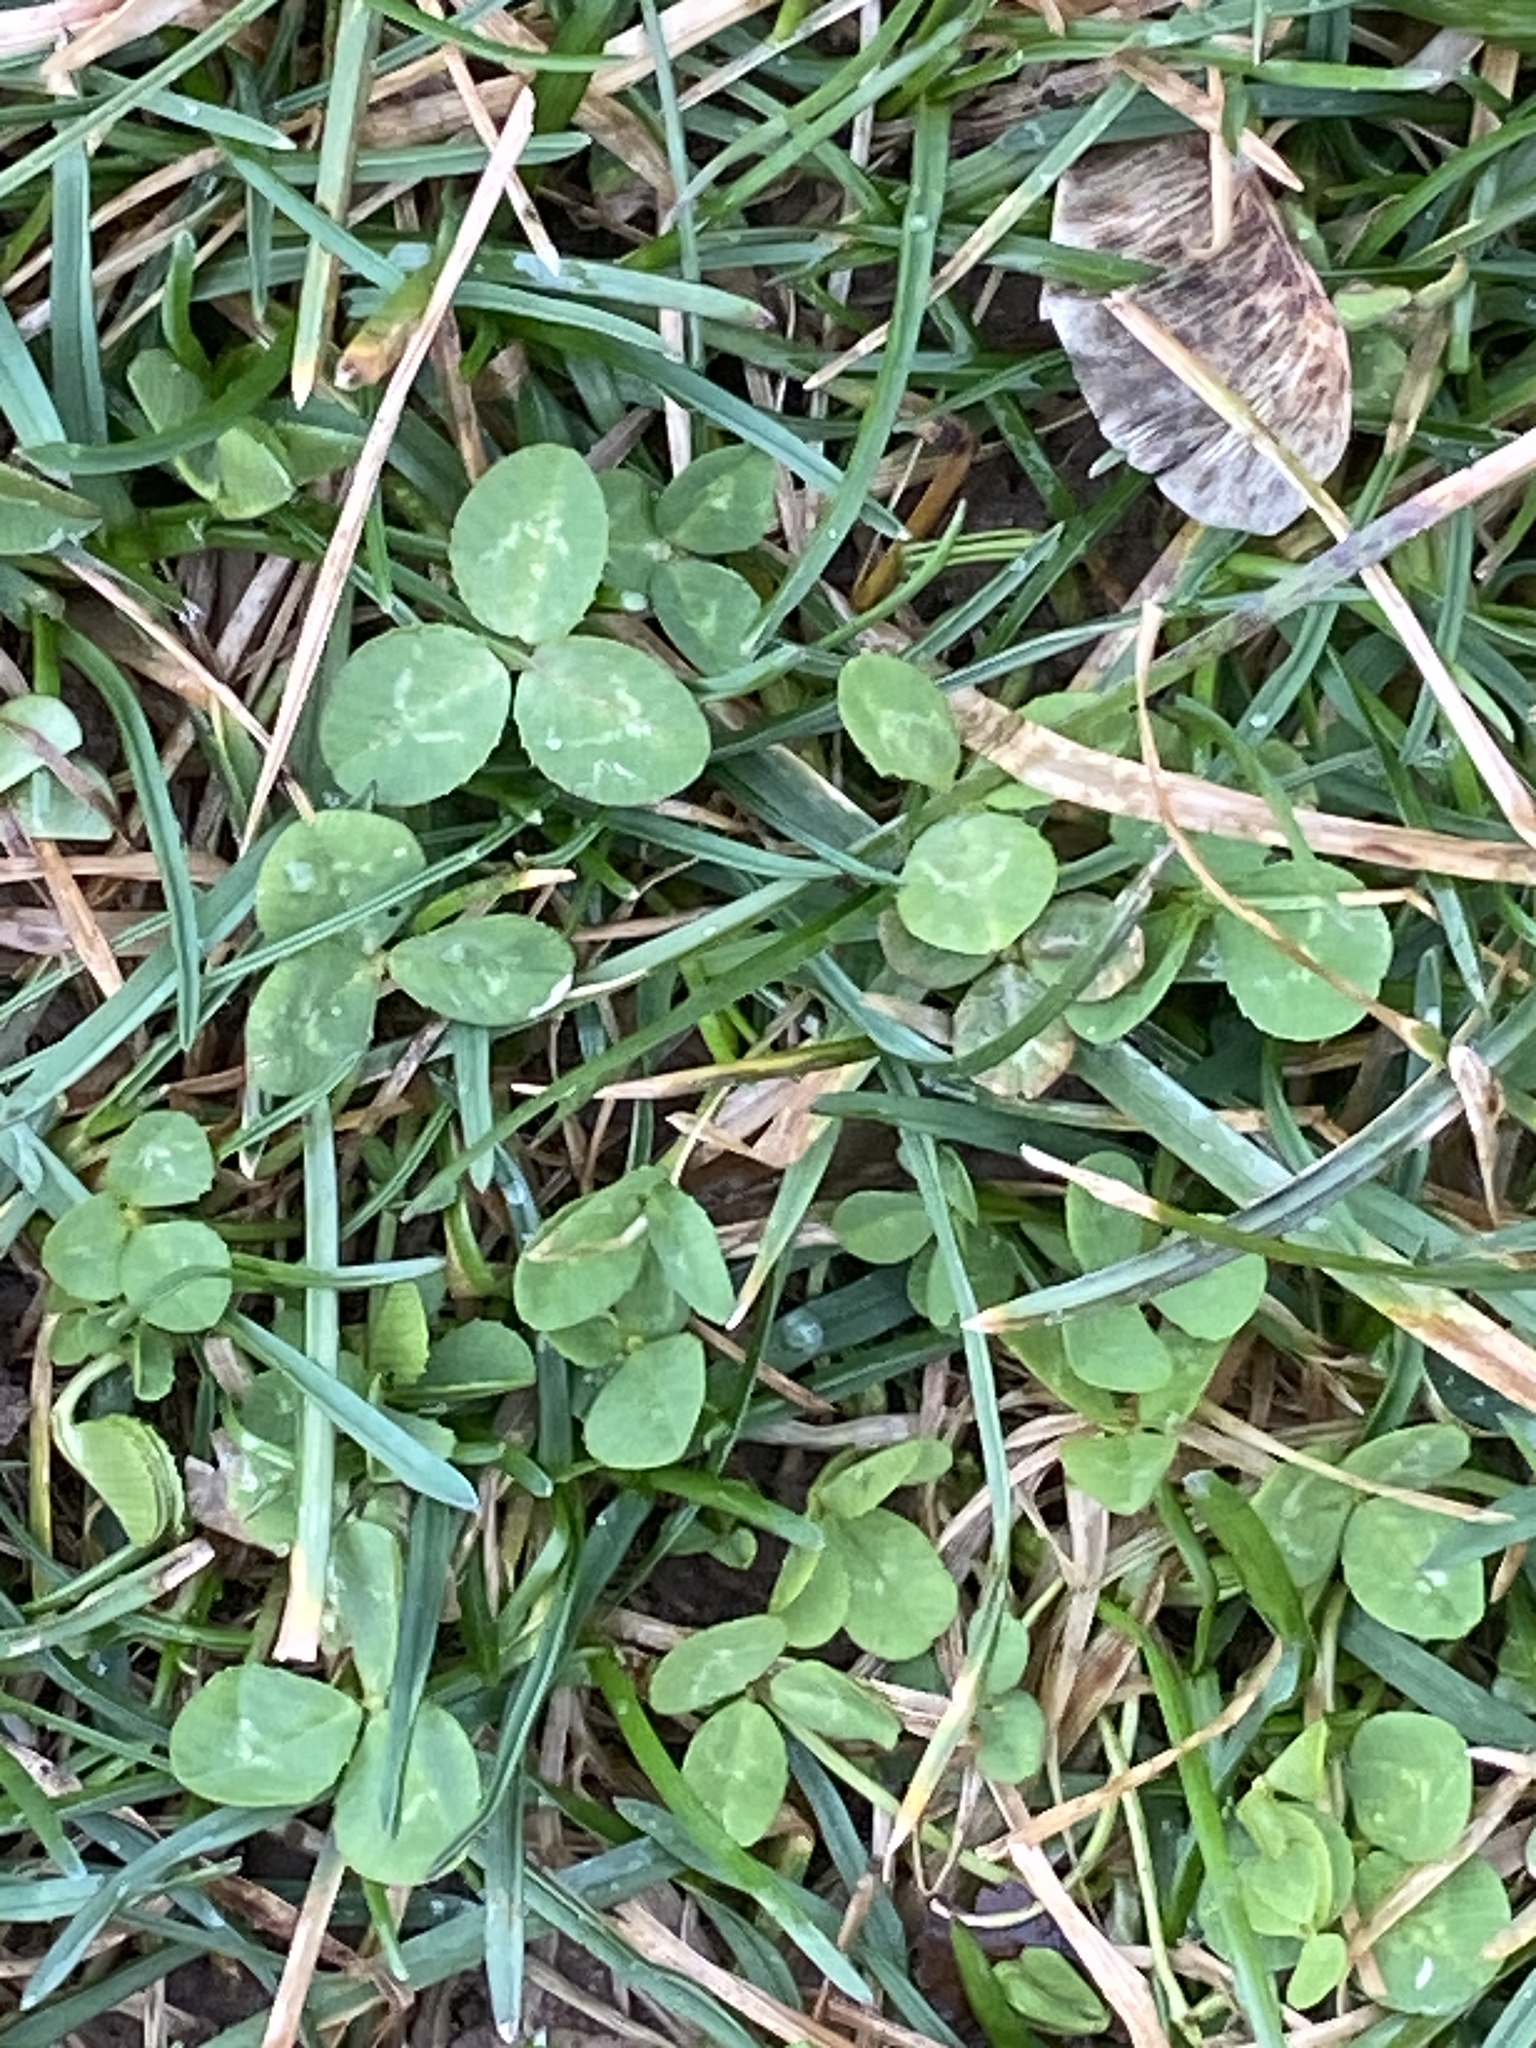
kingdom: Plantae
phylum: Tracheophyta
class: Magnoliopsida
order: Fabales
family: Fabaceae
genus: Trifolium
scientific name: Trifolium repens
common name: White clover
